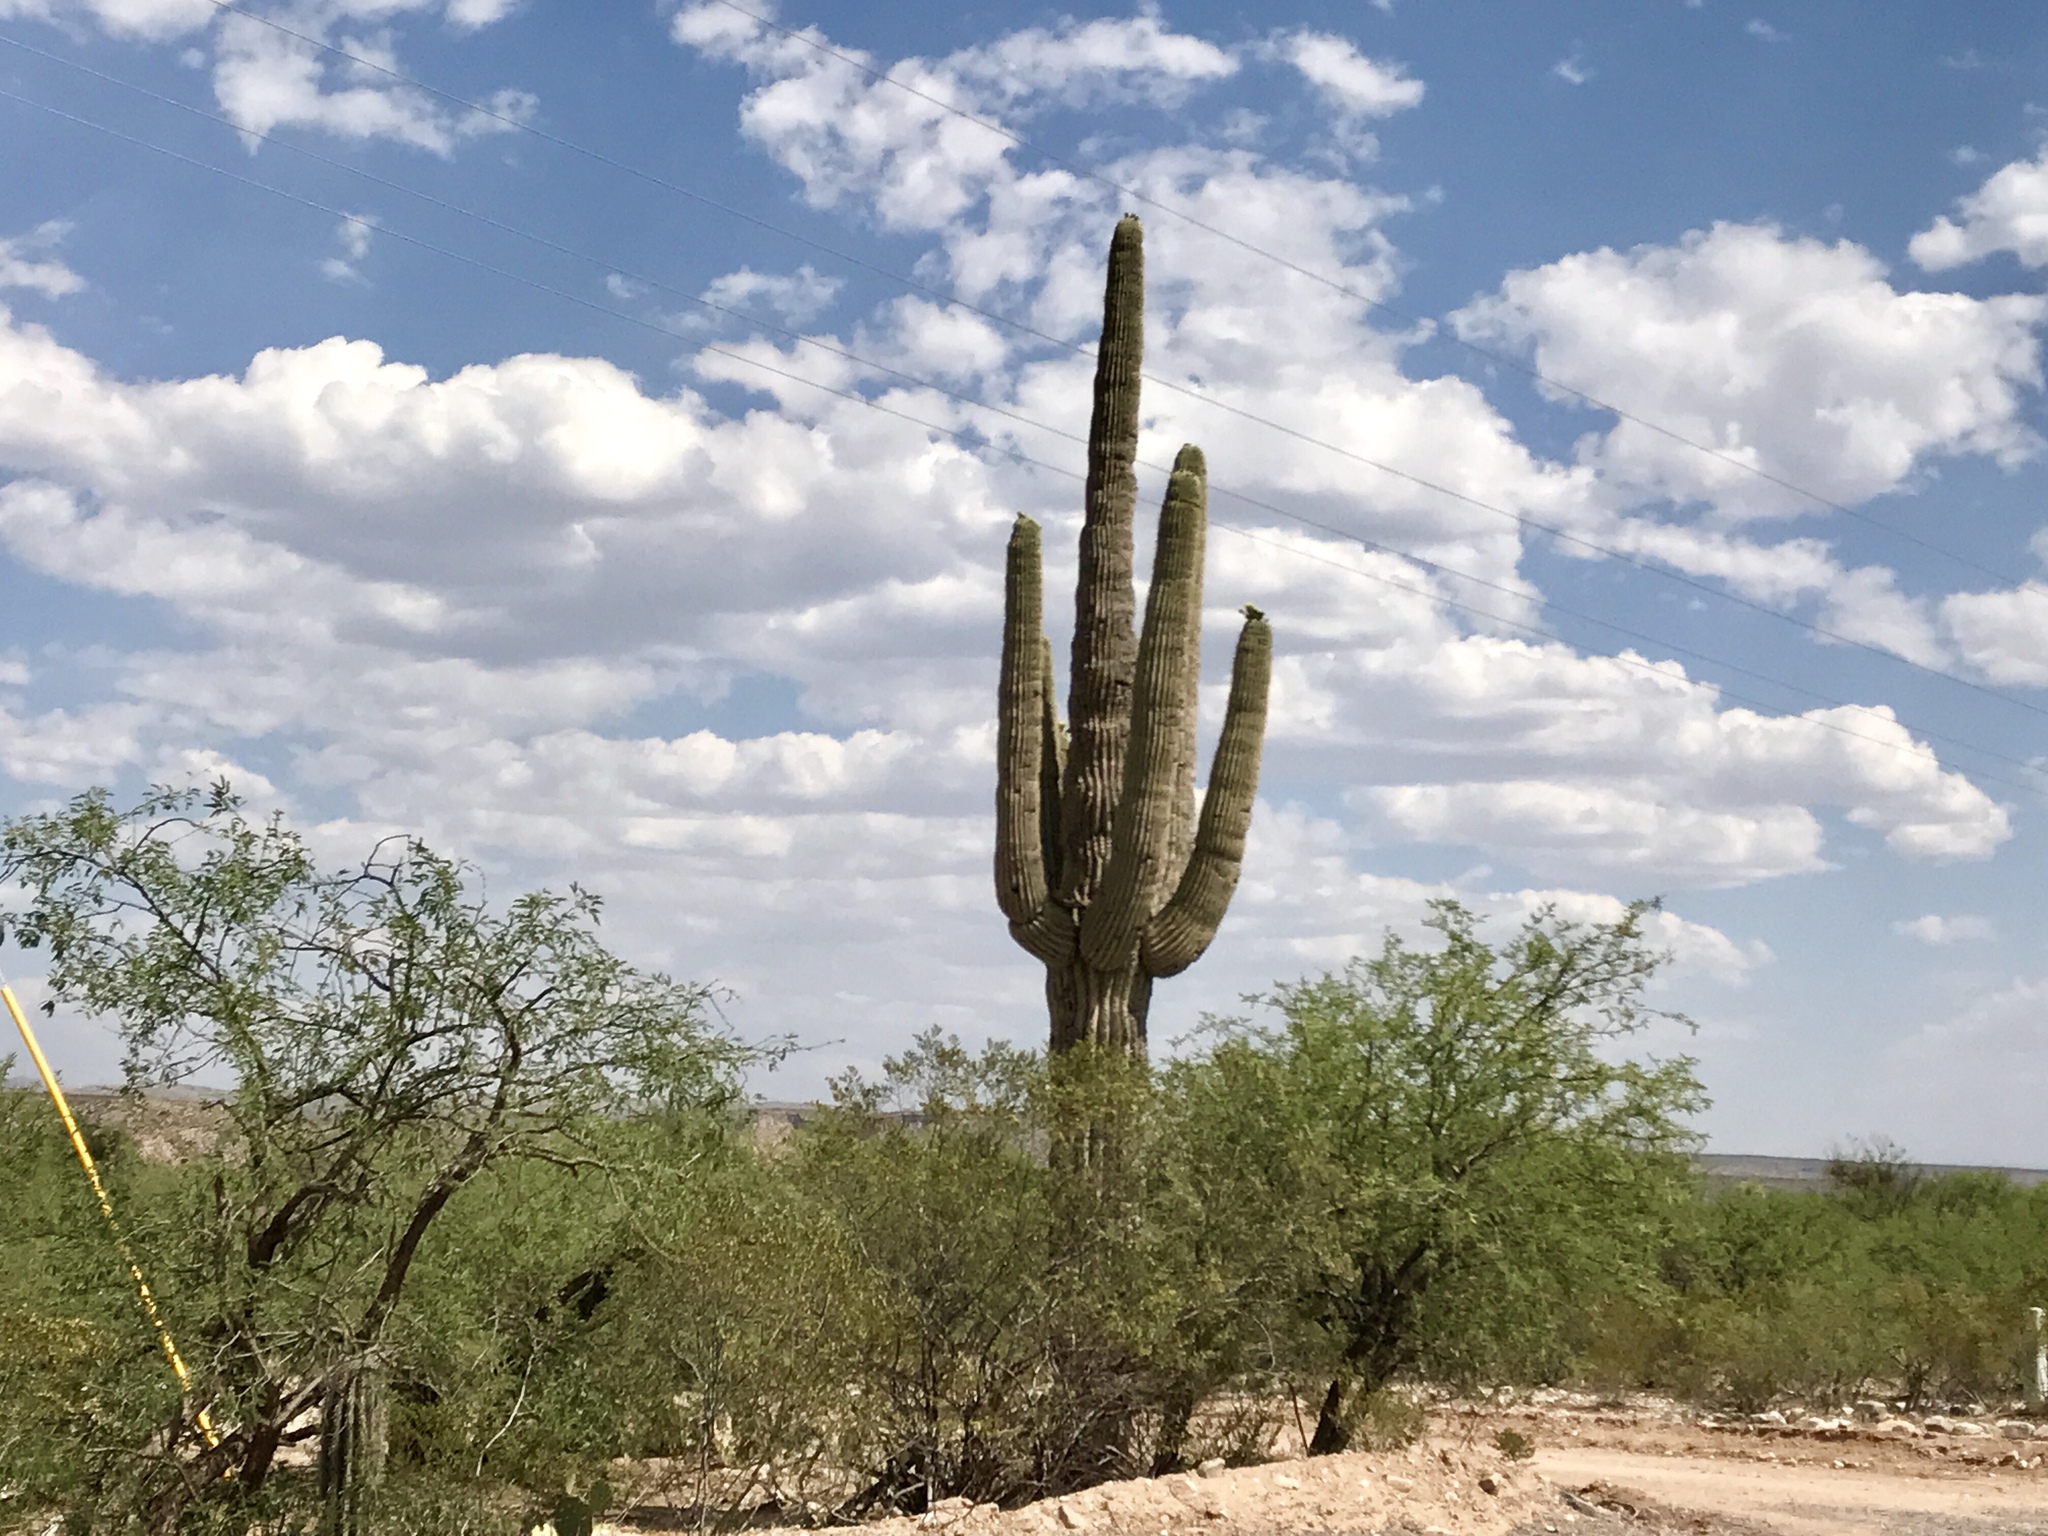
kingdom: Plantae
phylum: Tracheophyta
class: Magnoliopsida
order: Caryophyllales
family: Cactaceae
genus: Carnegiea
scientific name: Carnegiea gigantea
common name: Saguaro
